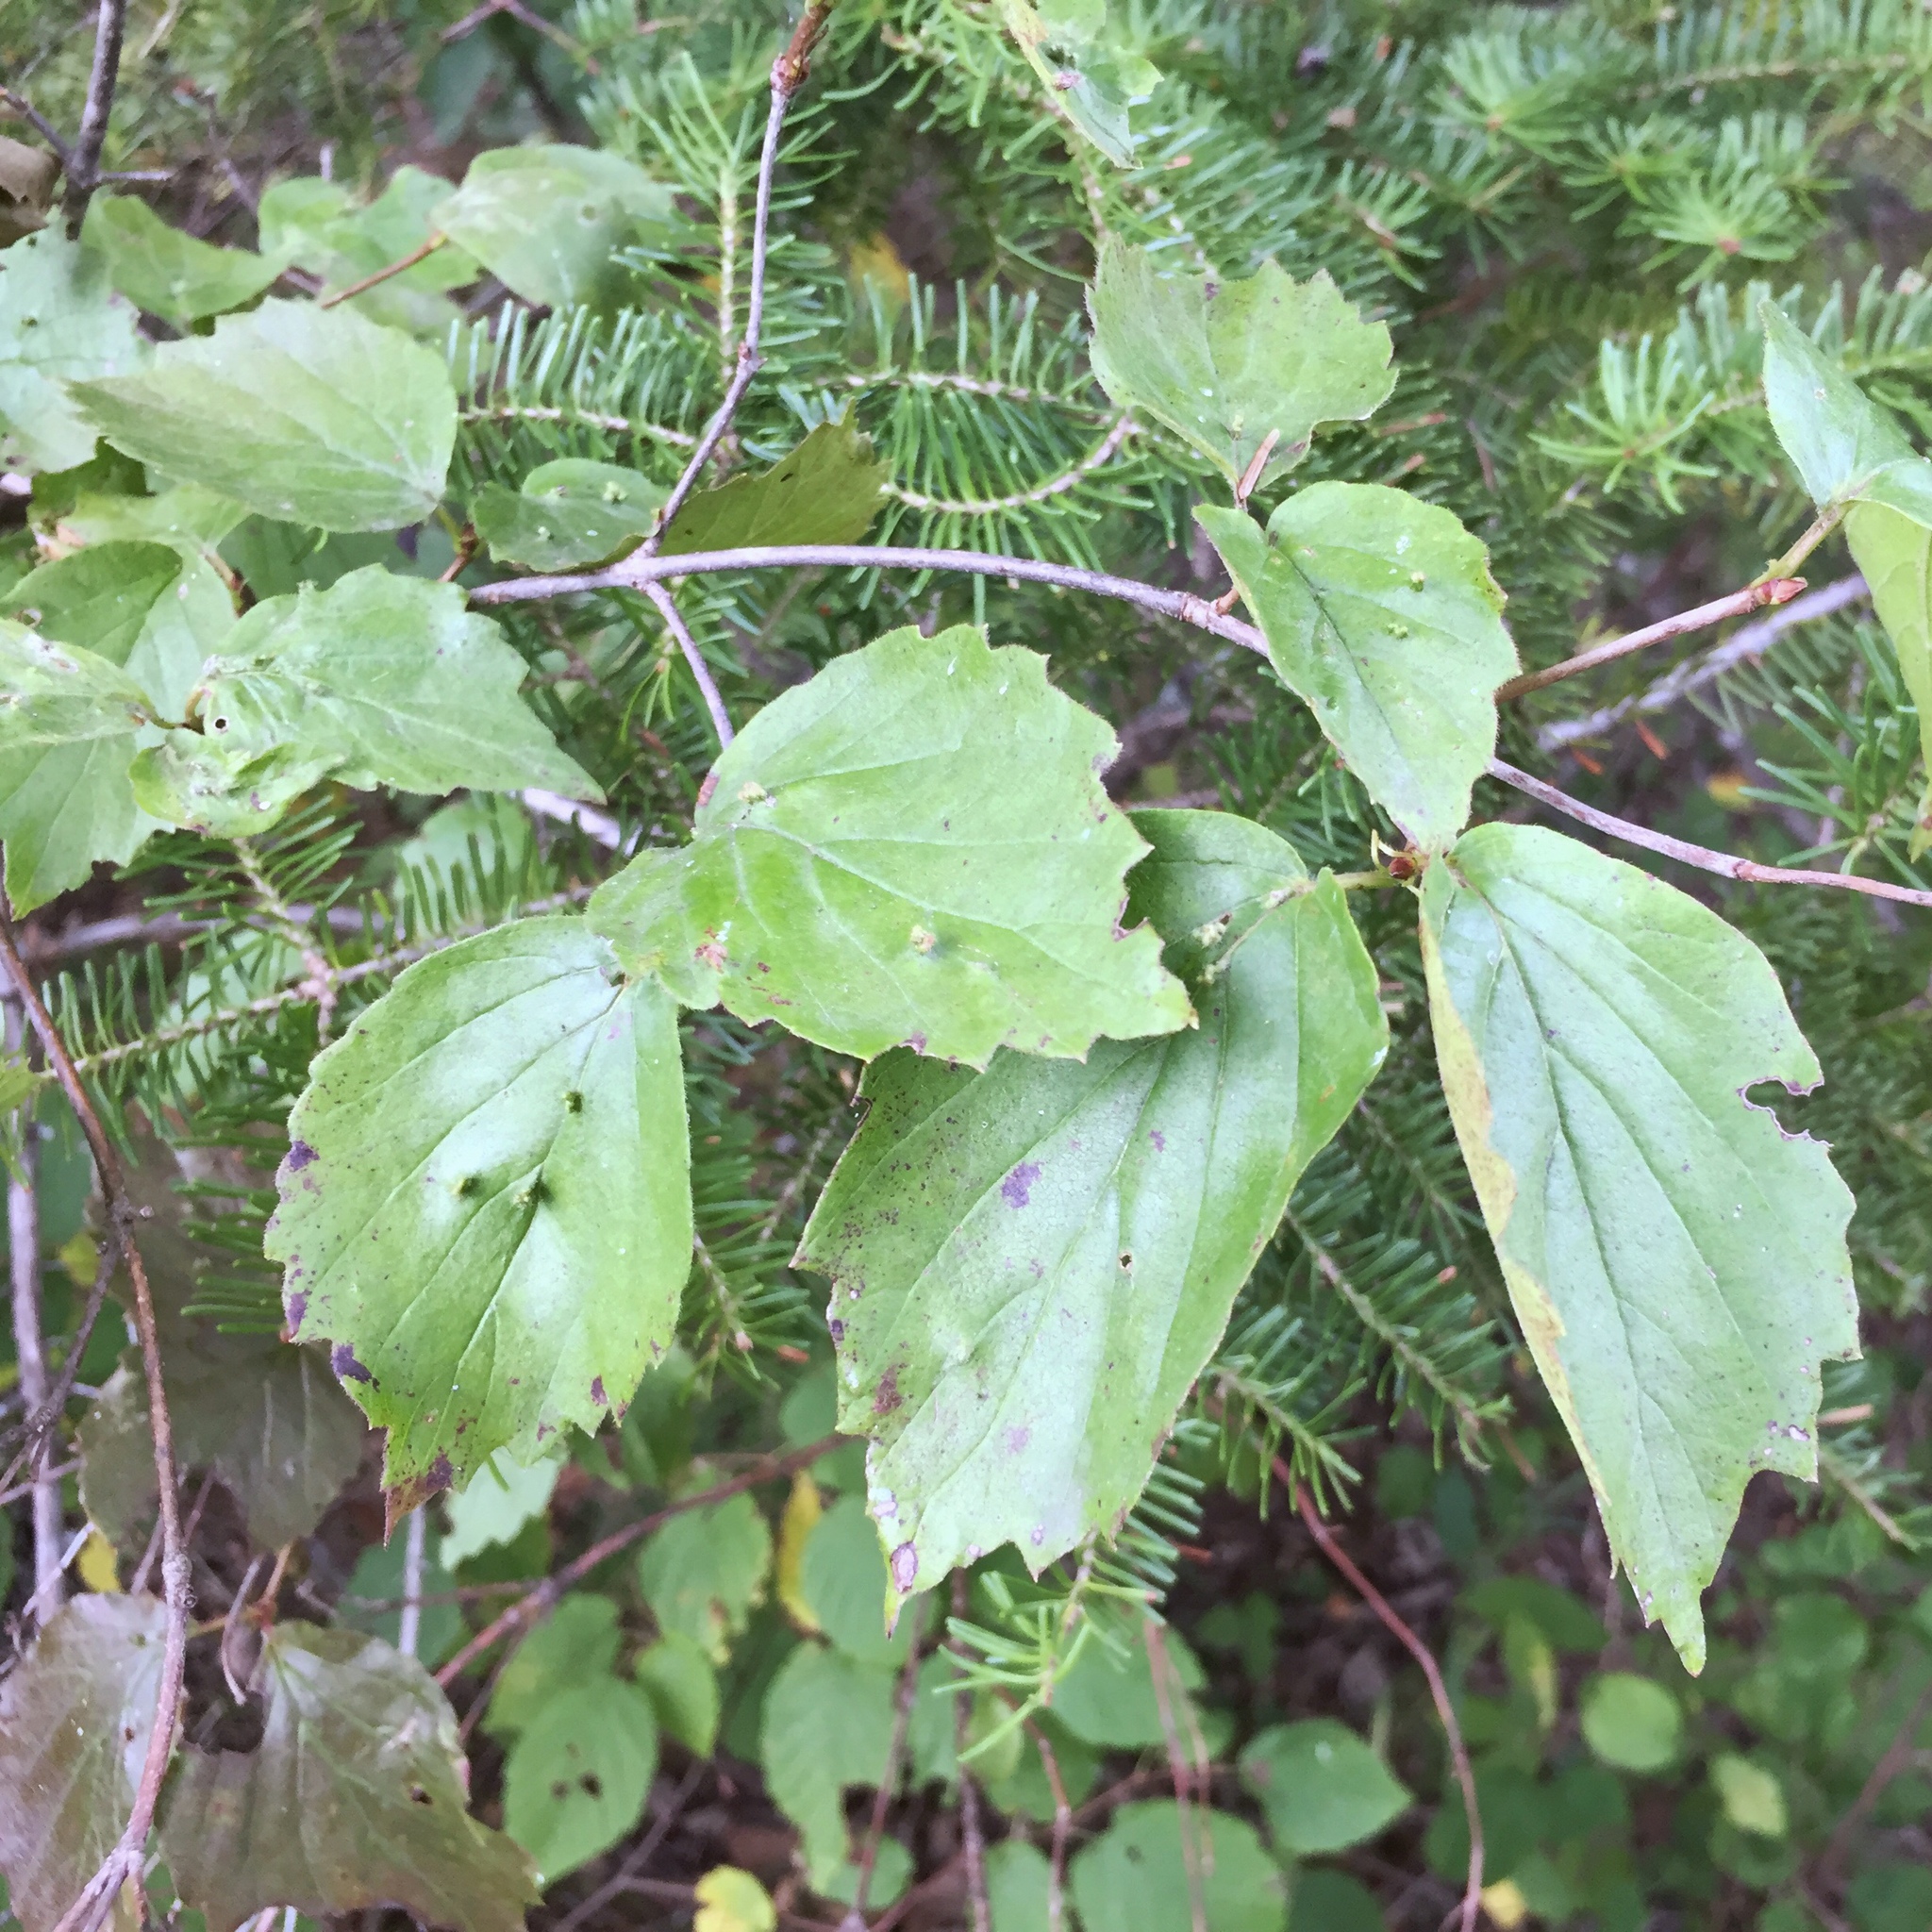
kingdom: Plantae
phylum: Tracheophyta
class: Magnoliopsida
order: Dipsacales
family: Viburnaceae
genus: Viburnum
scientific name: Viburnum rafinesqueanum
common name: Downy arrow-wood
